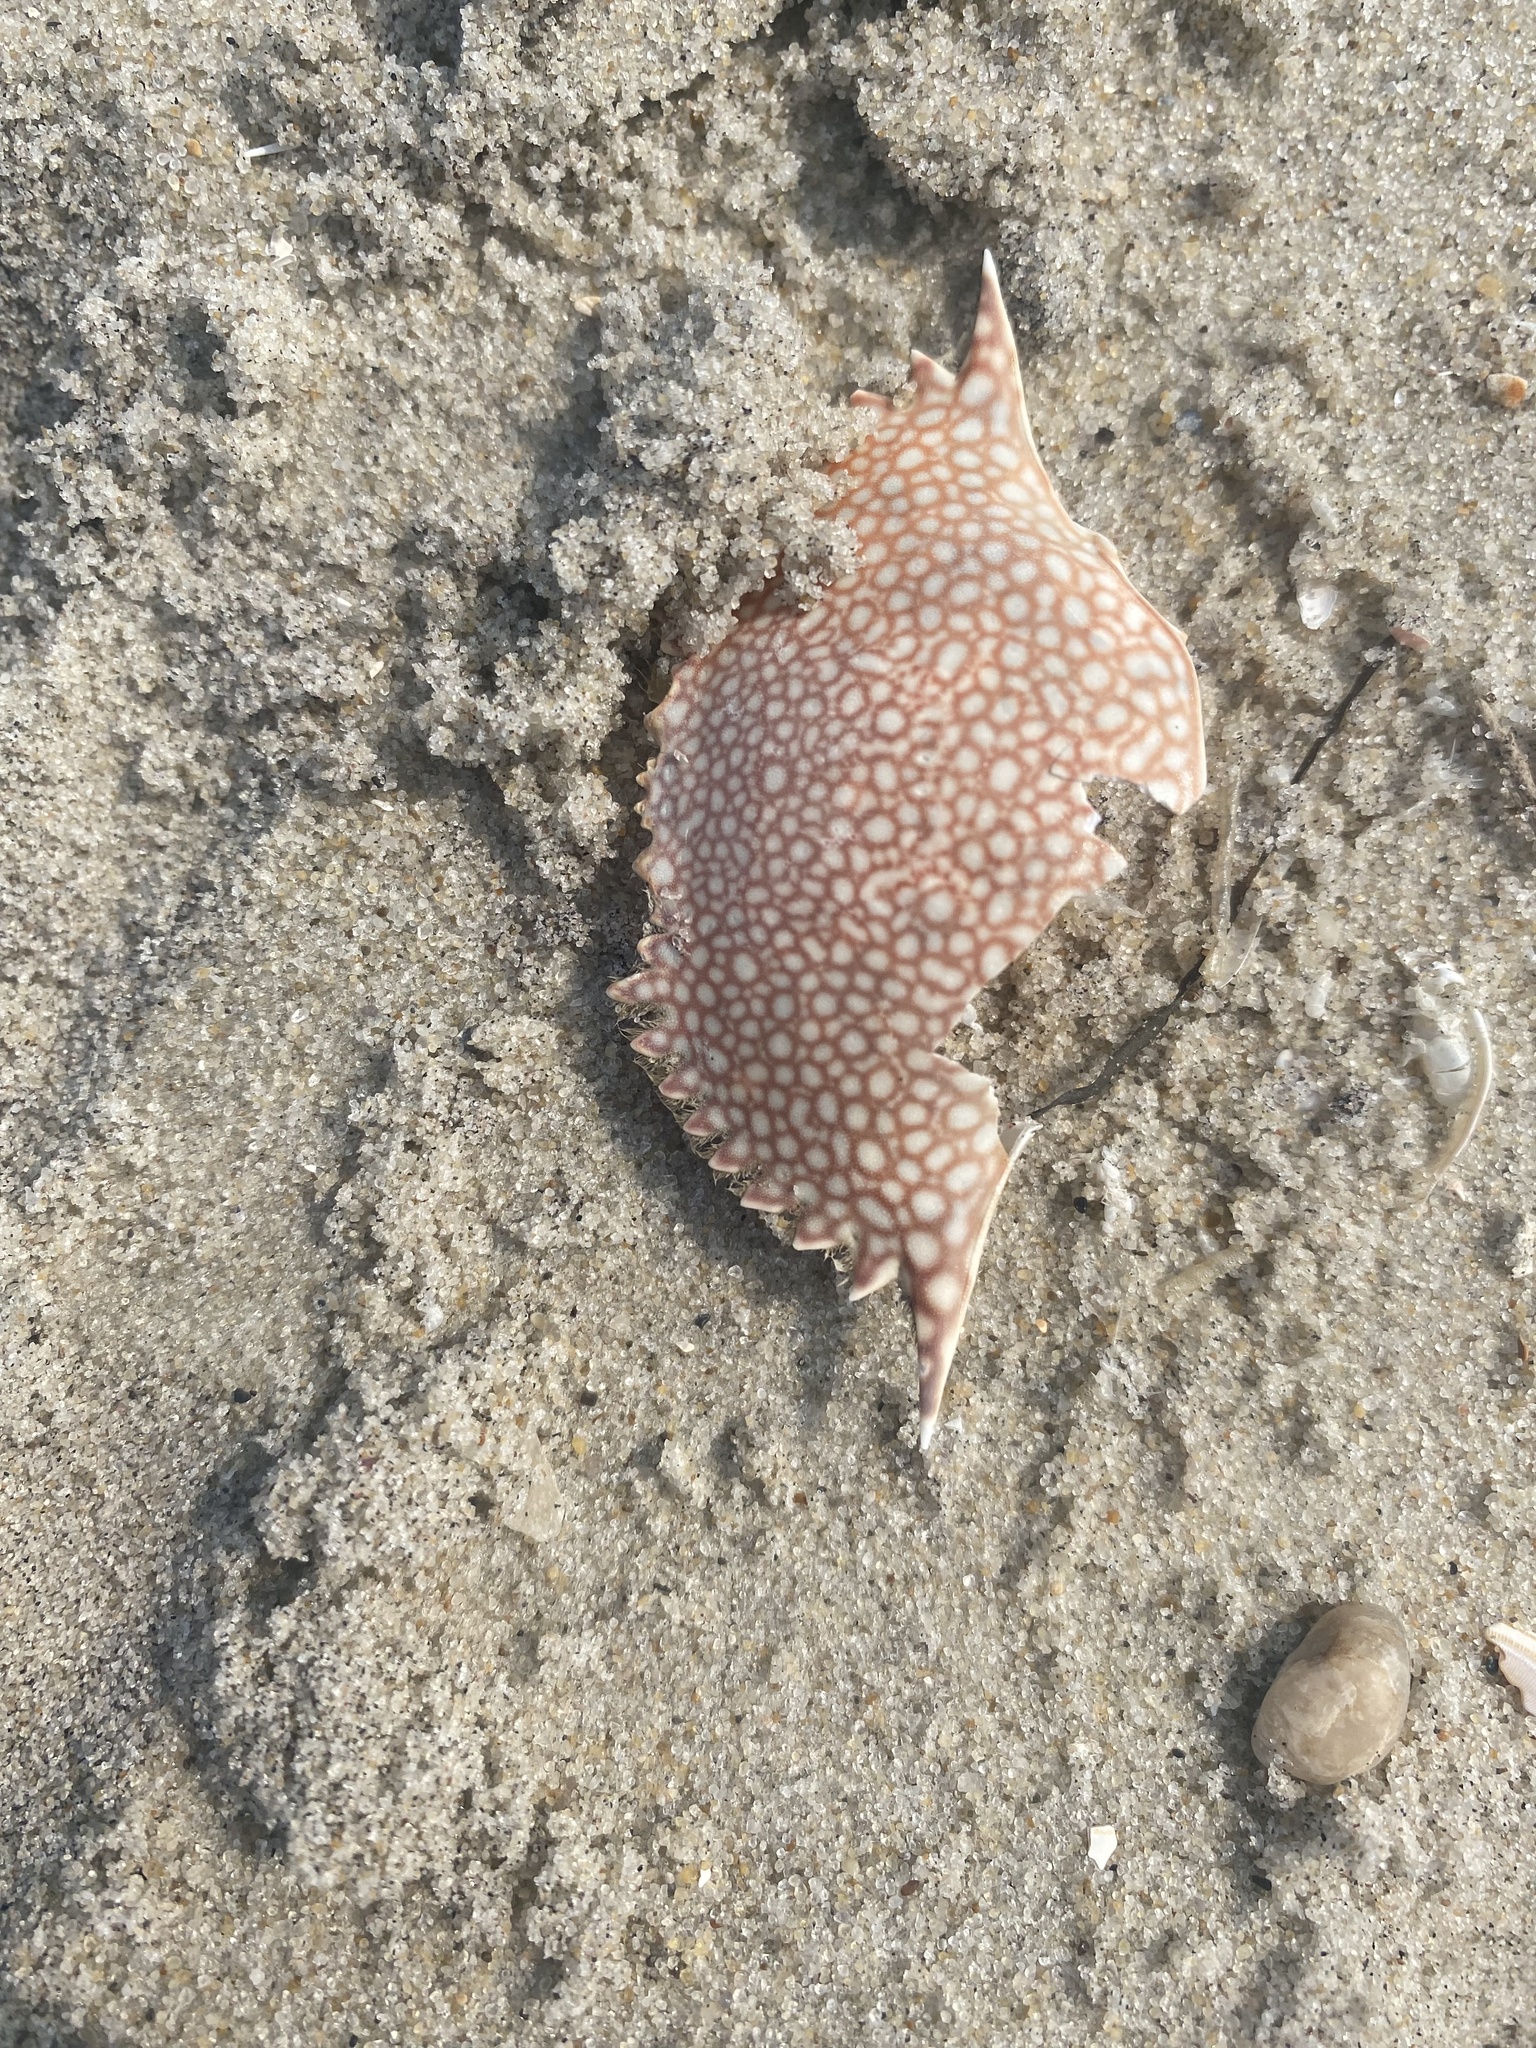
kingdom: Animalia
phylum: Arthropoda
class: Malacostraca
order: Decapoda
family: Portunidae
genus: Arenaeus
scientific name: Arenaeus cribrarius
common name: Speckled crab
